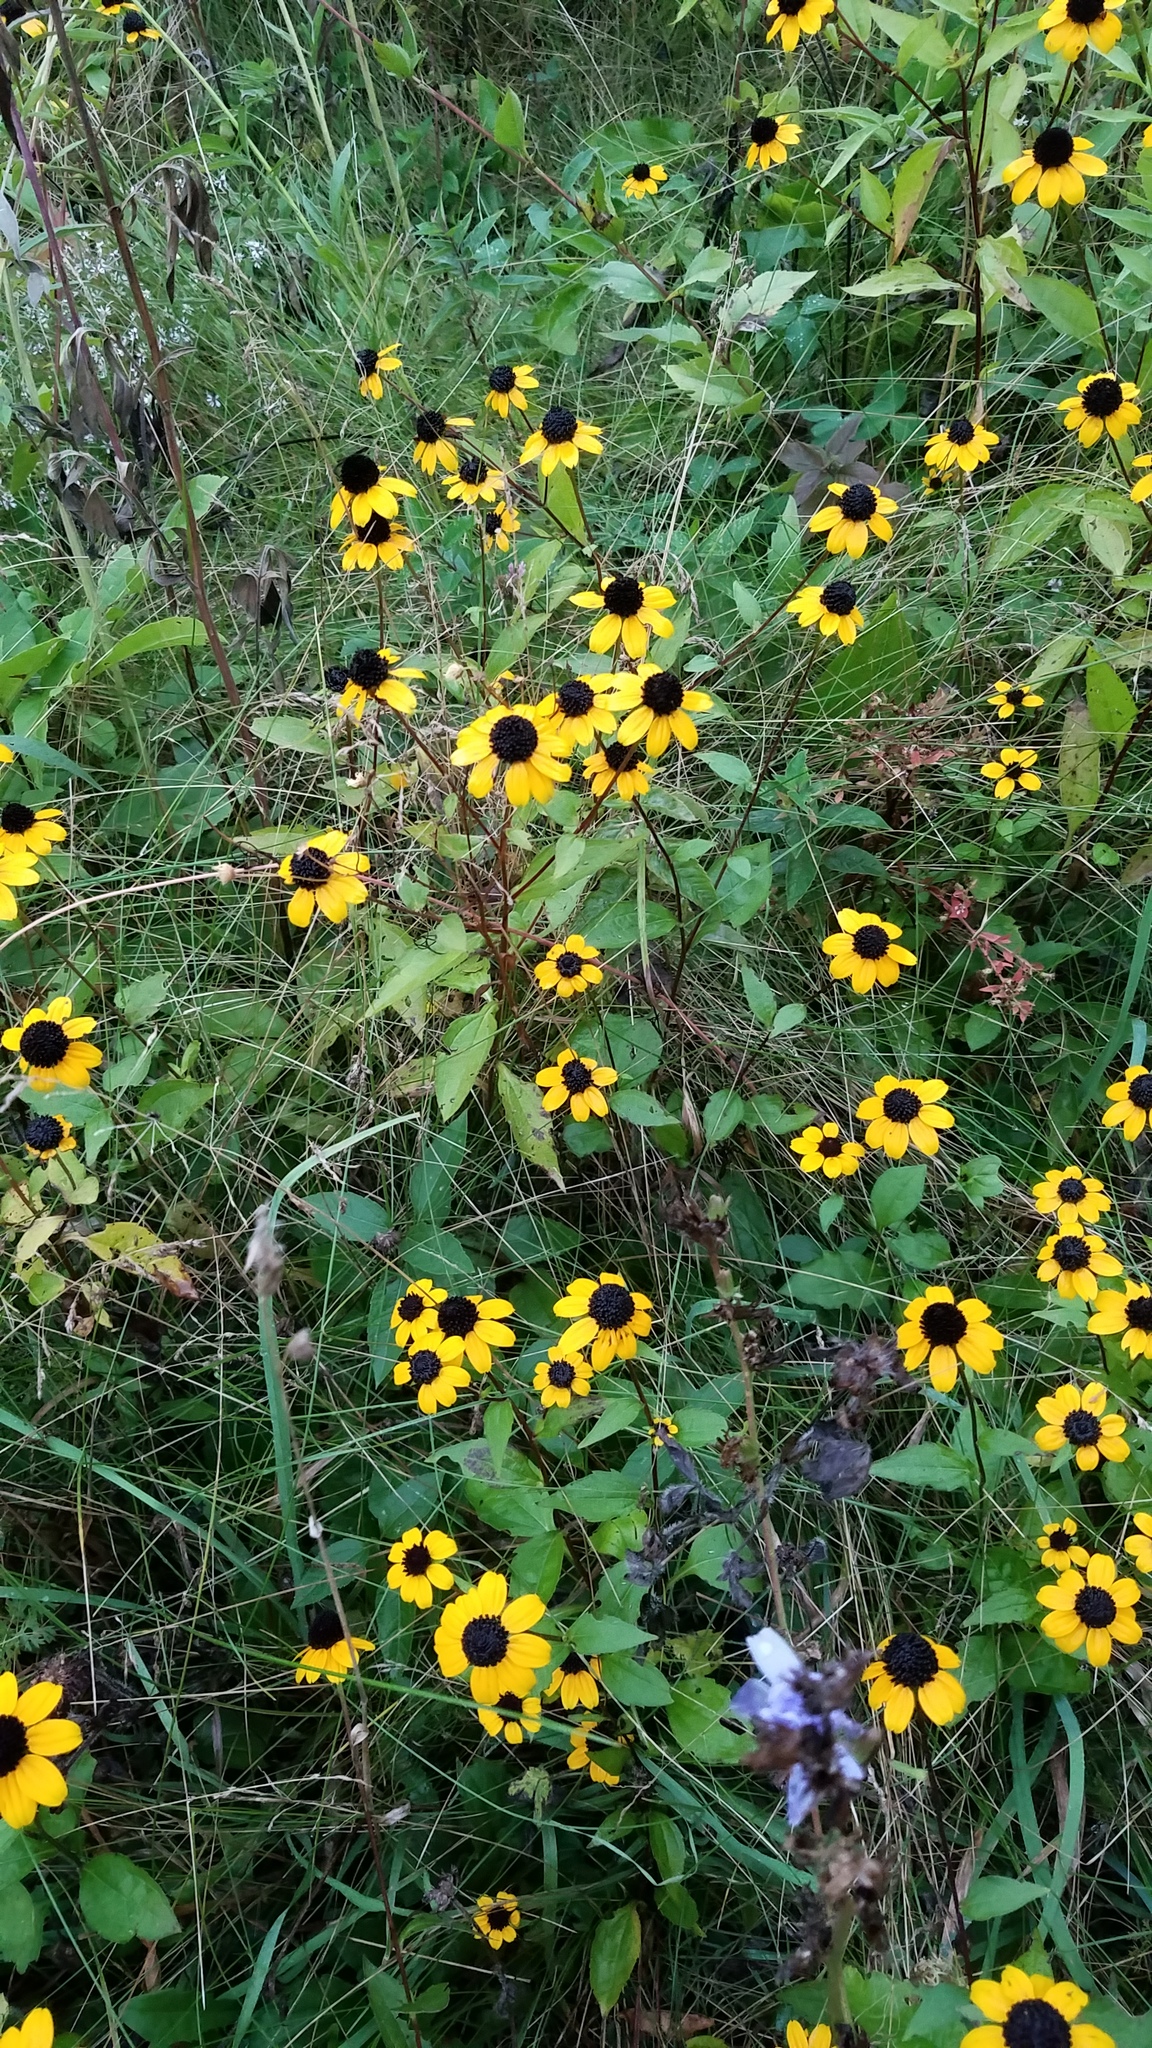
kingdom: Plantae
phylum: Tracheophyta
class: Magnoliopsida
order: Asterales
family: Asteraceae
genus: Rudbeckia
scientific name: Rudbeckia triloba
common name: Thin-leaved coneflower
